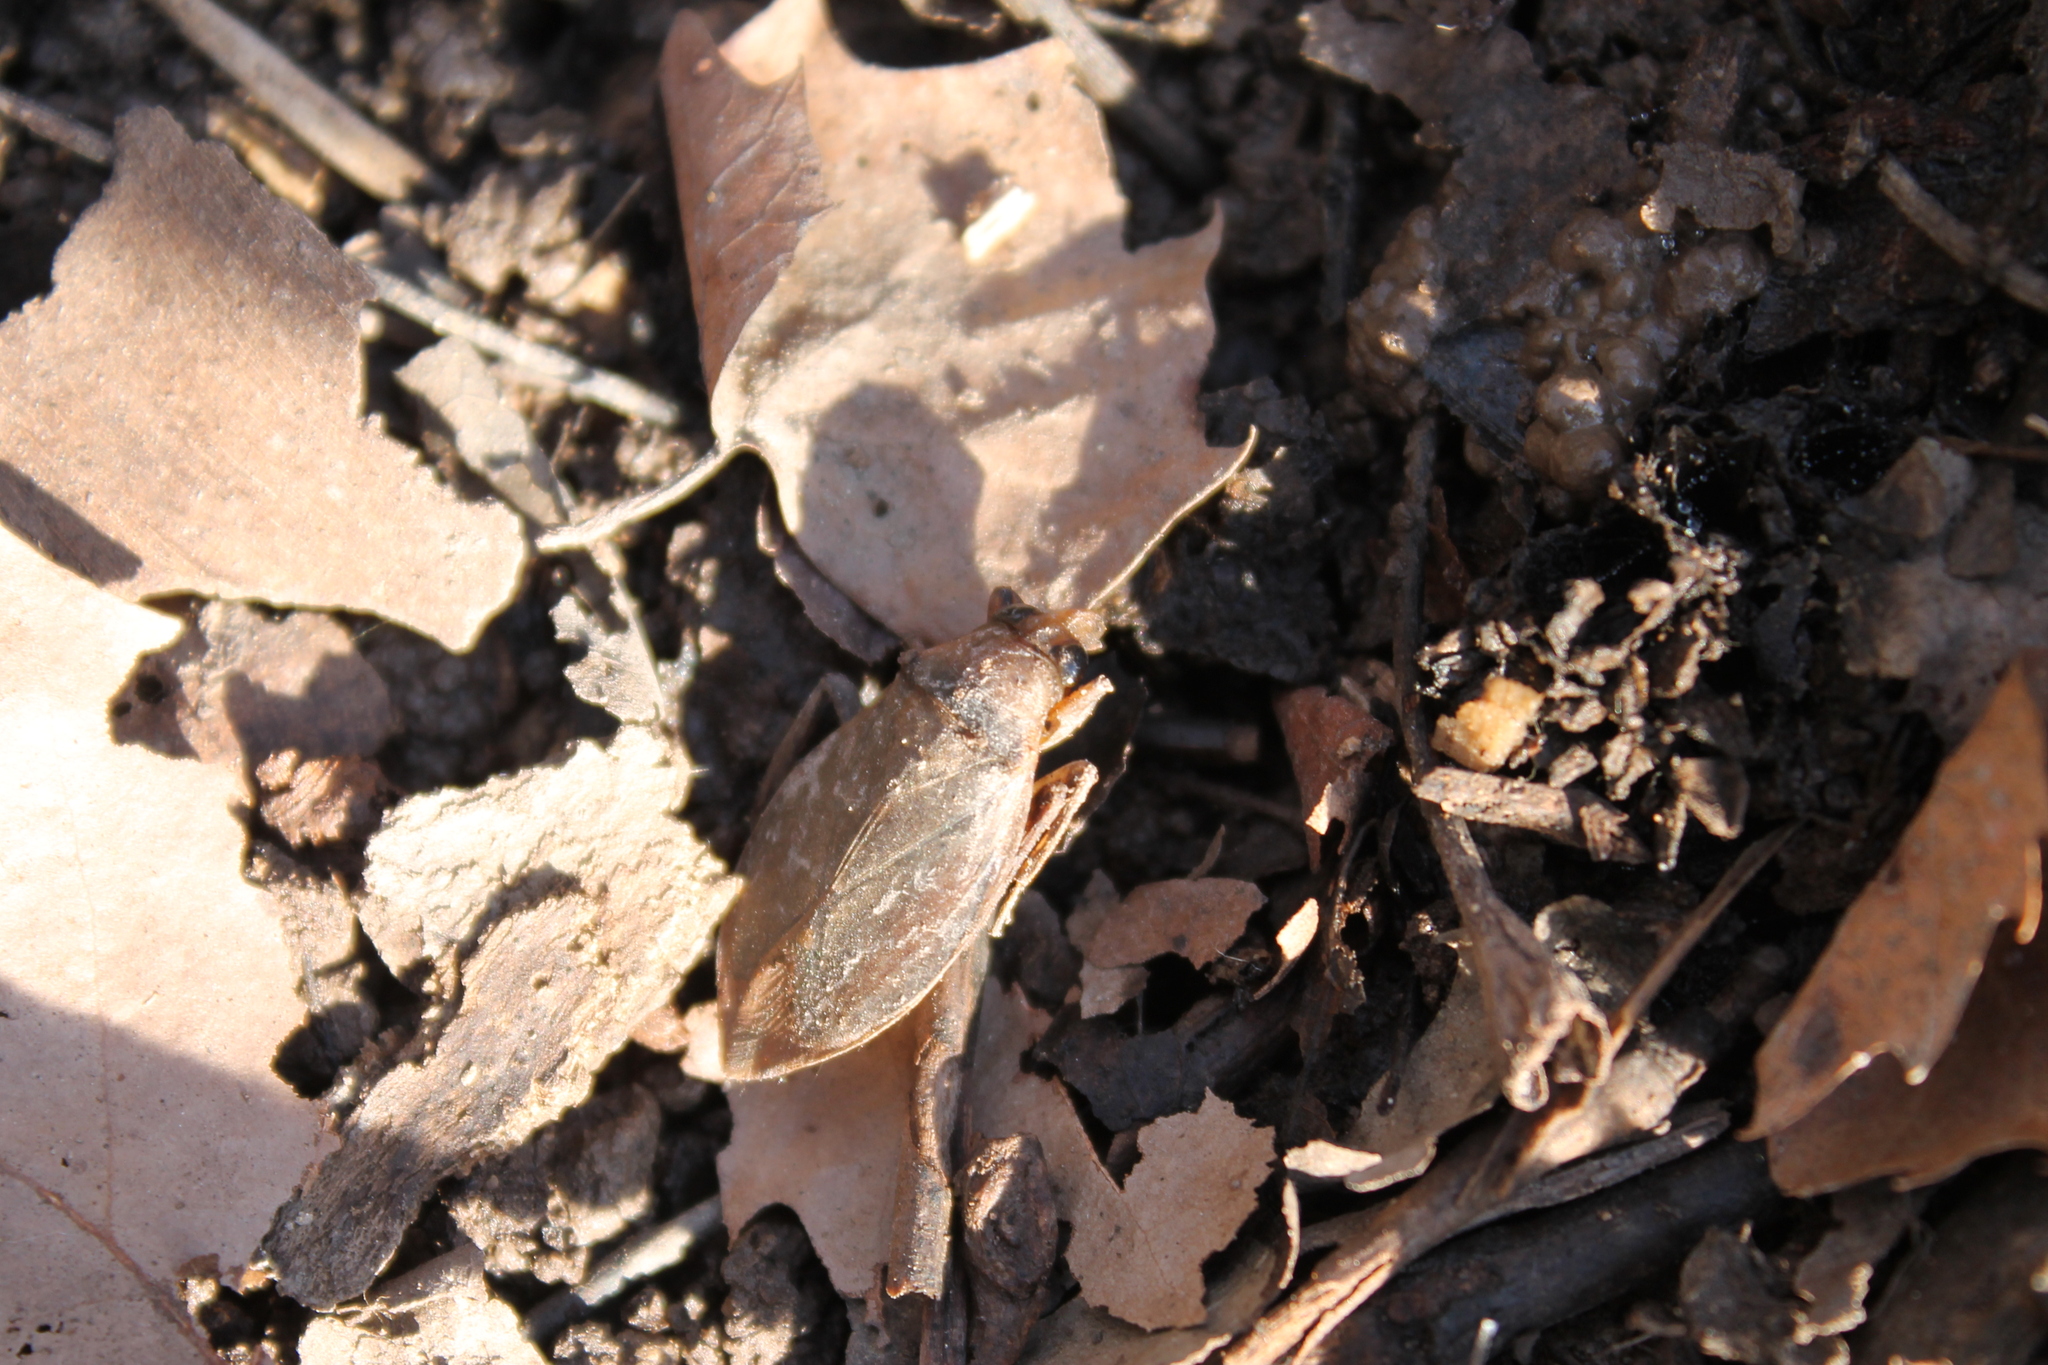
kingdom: Animalia
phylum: Arthropoda
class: Insecta
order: Hemiptera
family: Belostomatidae
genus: Belostoma
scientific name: Belostoma lutarium
